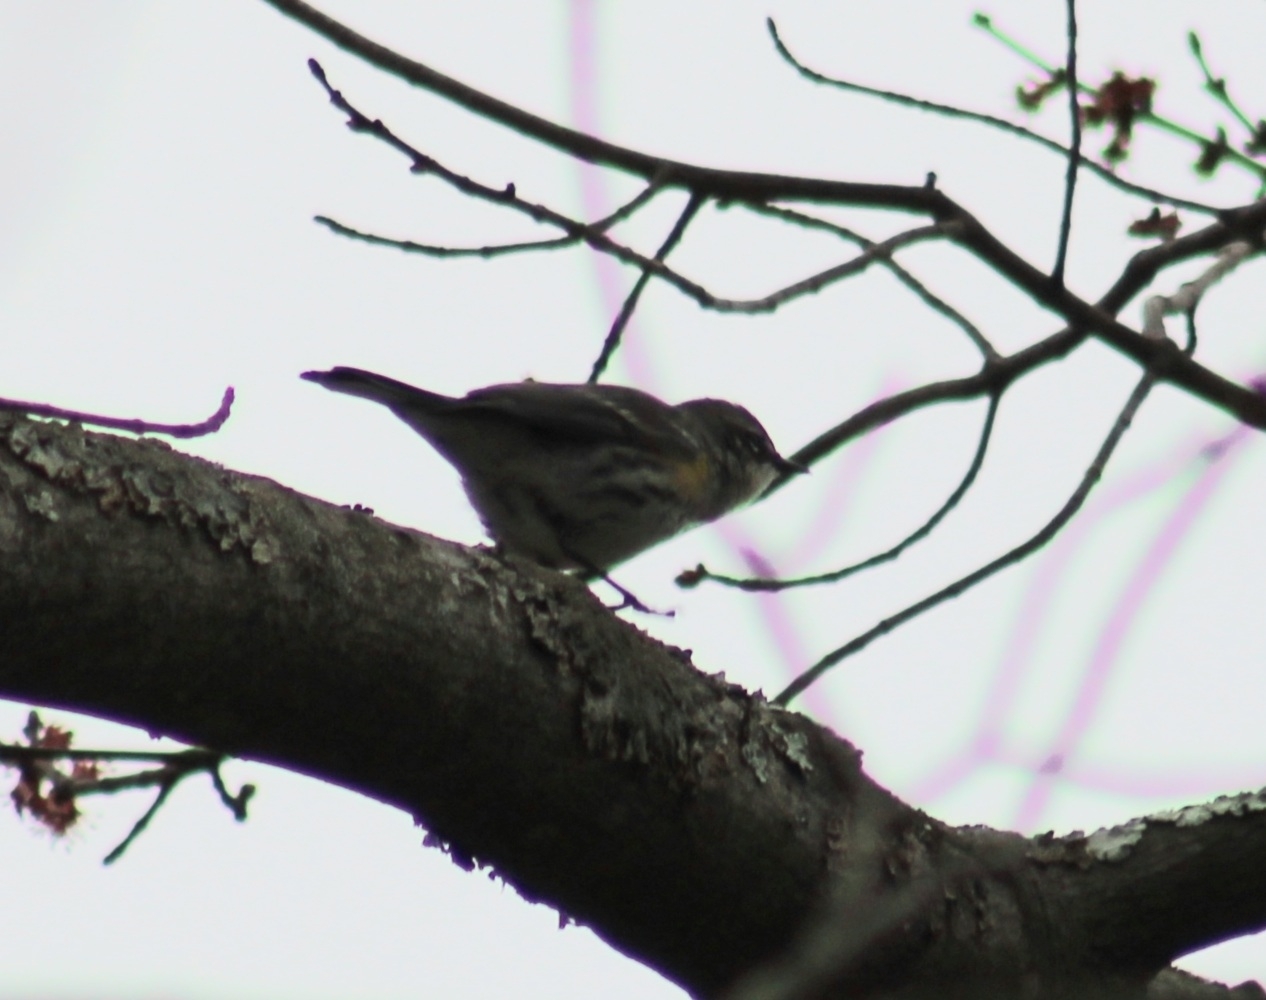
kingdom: Animalia
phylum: Chordata
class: Aves
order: Passeriformes
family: Parulidae
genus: Setophaga
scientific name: Setophaga coronata
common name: Myrtle warbler
